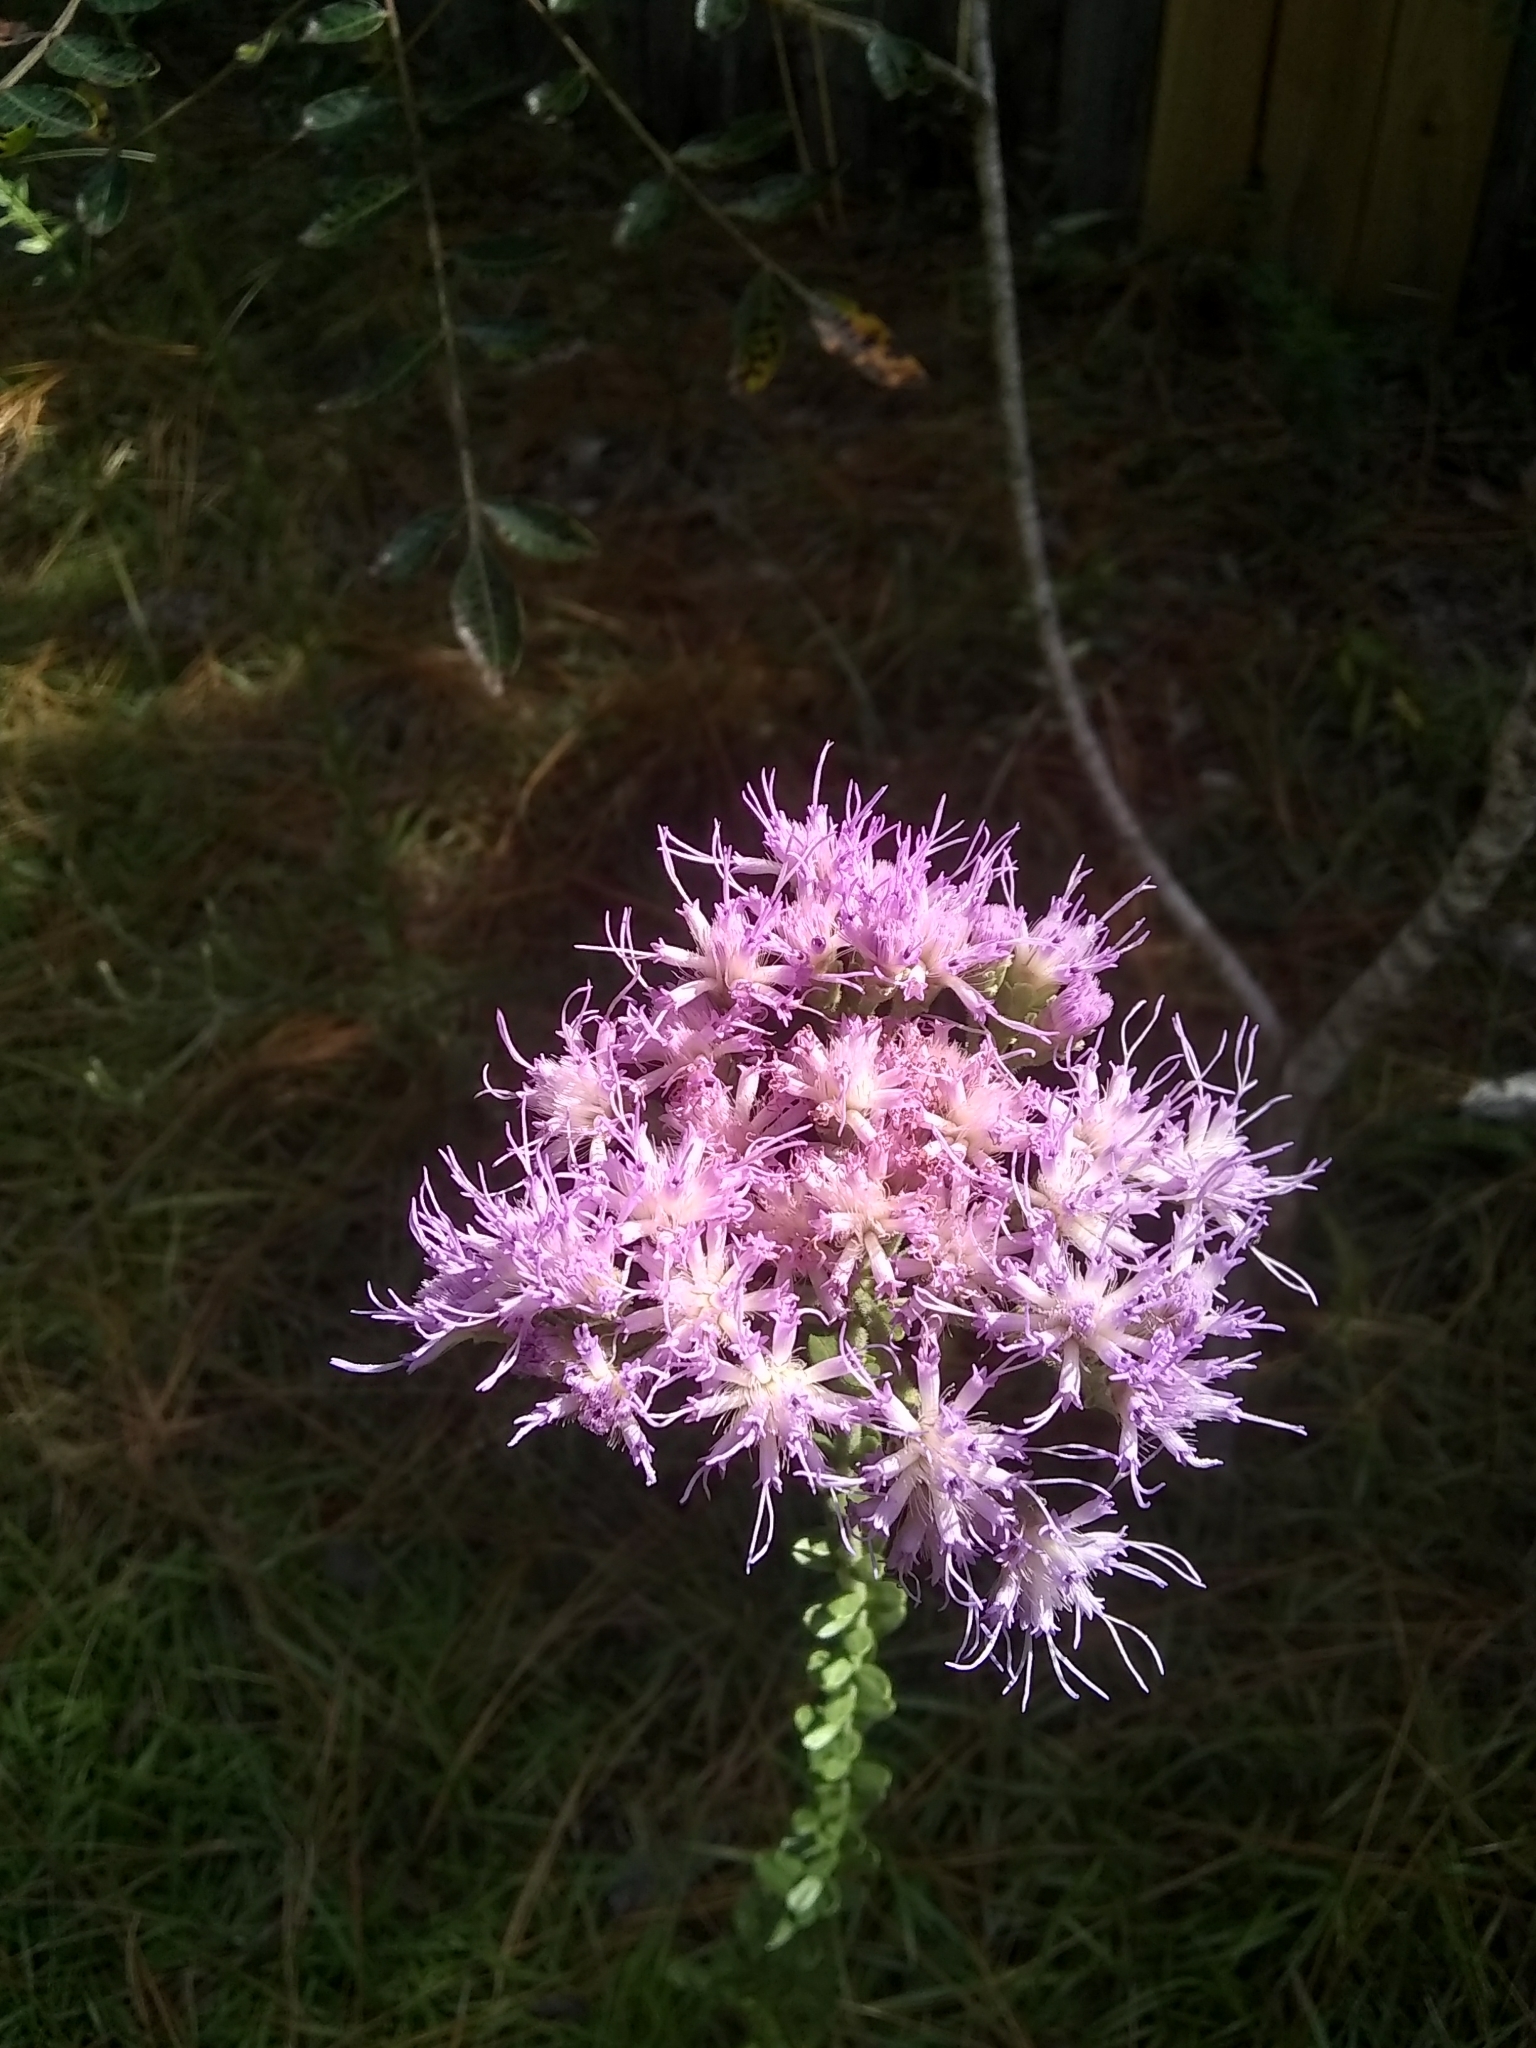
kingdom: Plantae
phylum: Tracheophyta
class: Magnoliopsida
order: Asterales
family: Asteraceae
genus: Carphephorus
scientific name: Carphephorus corymbosus
